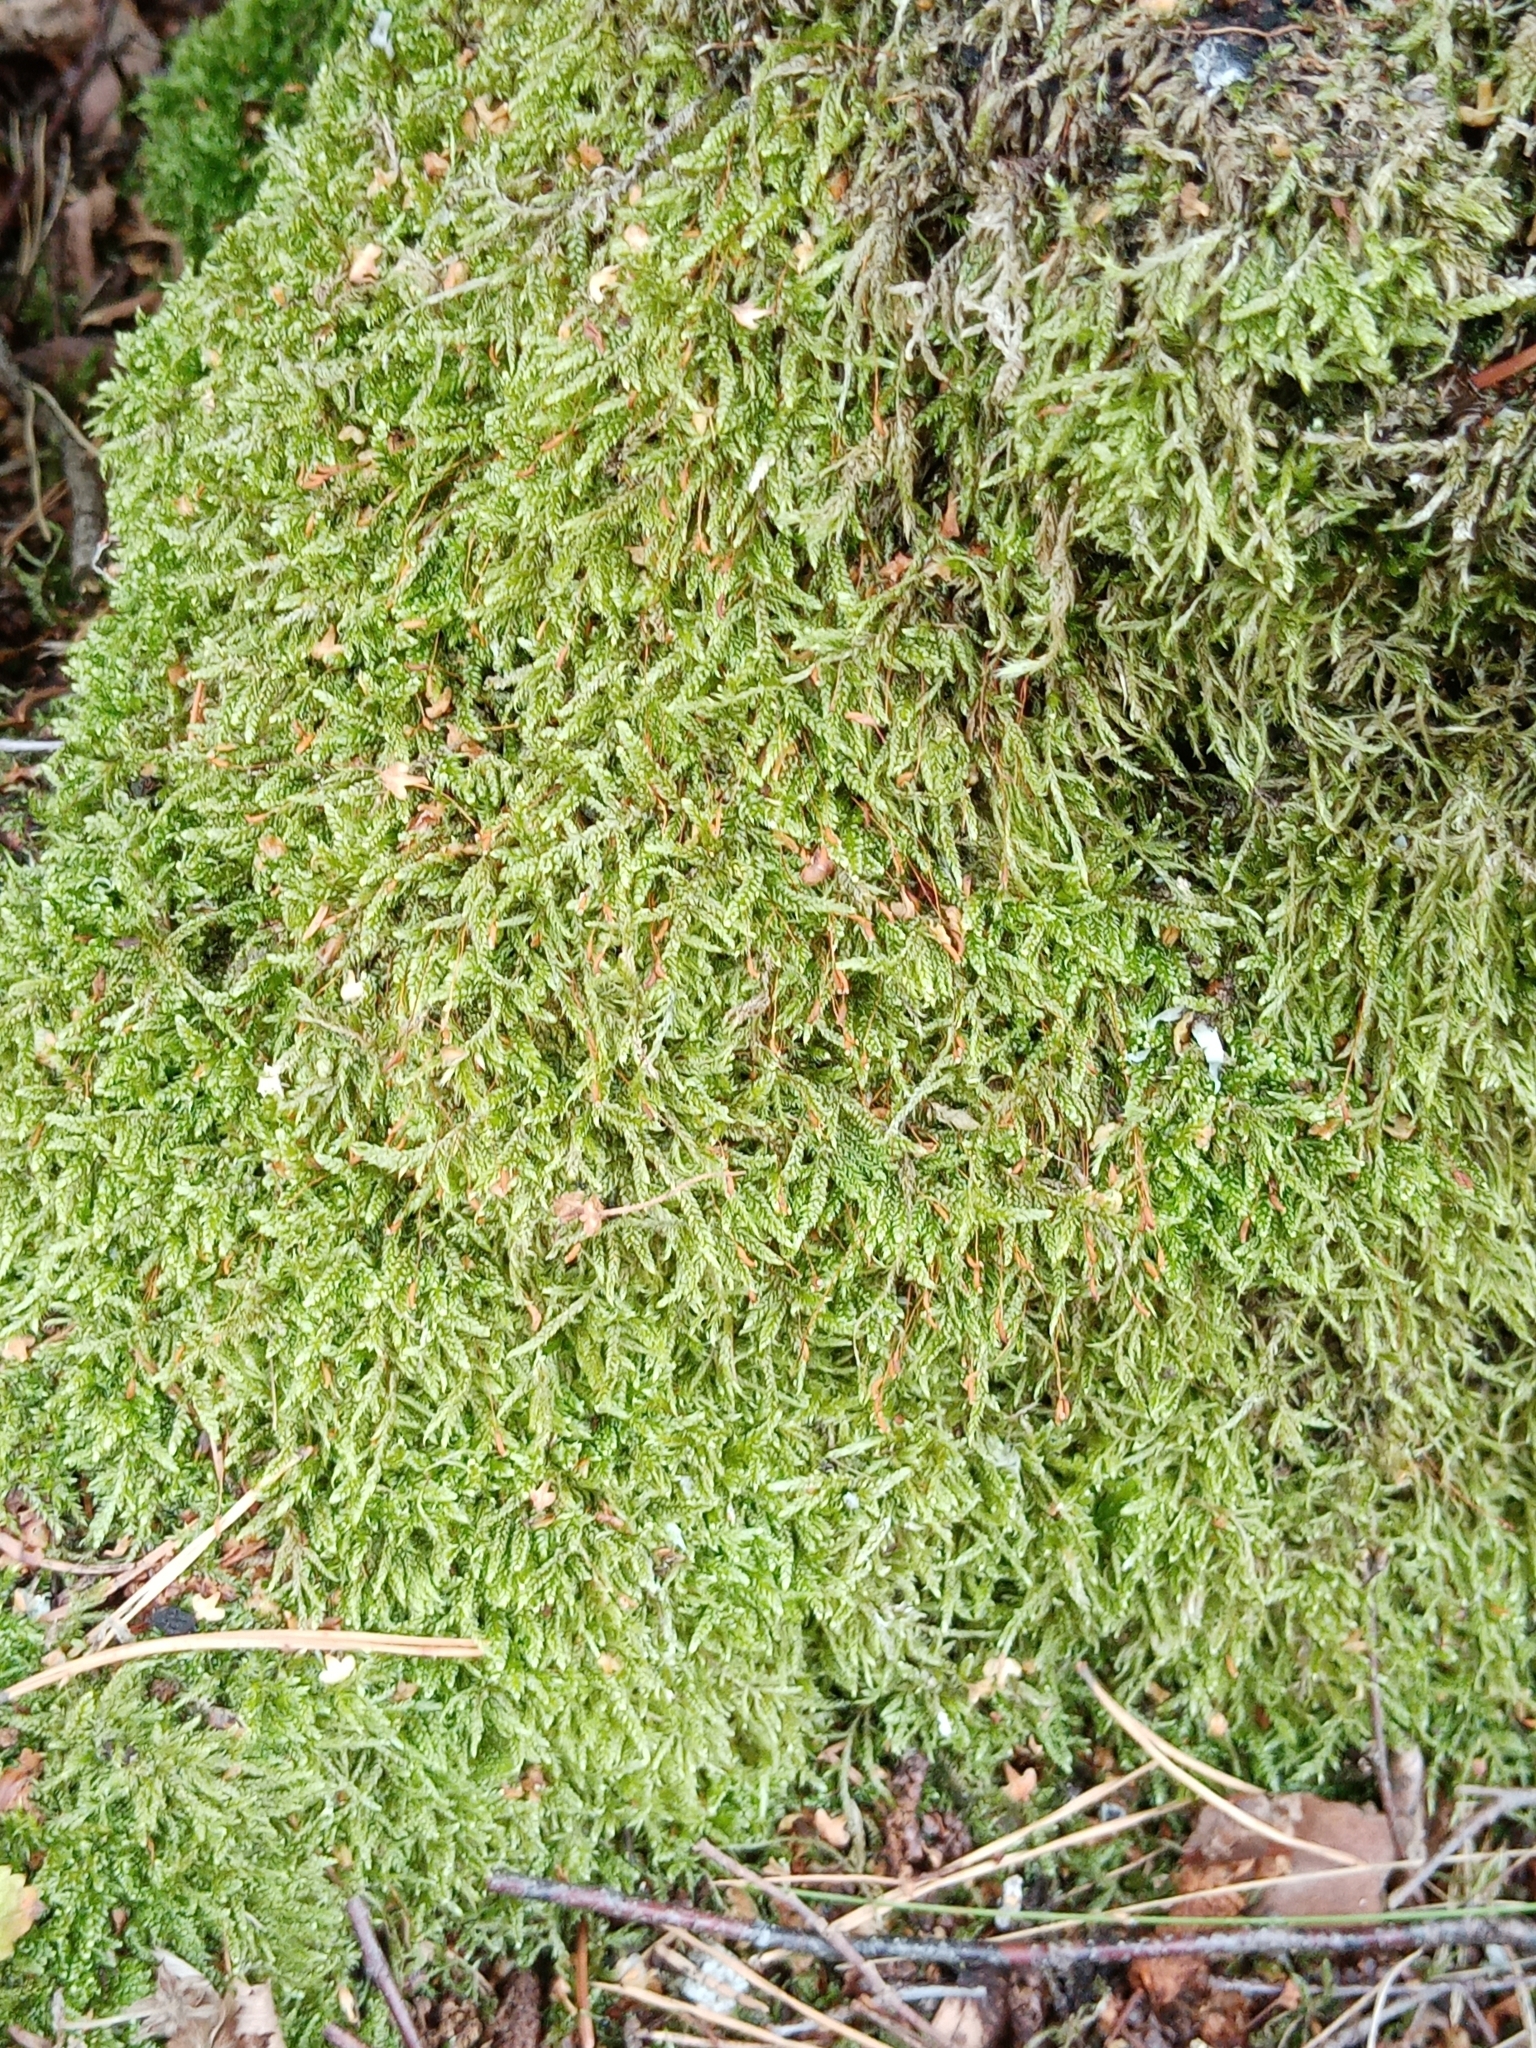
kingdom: Plantae
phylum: Bryophyta
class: Bryopsida
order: Hypnales
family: Hypnaceae
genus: Hypnum
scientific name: Hypnum cupressiforme
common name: Cypress-leaved plait-moss
